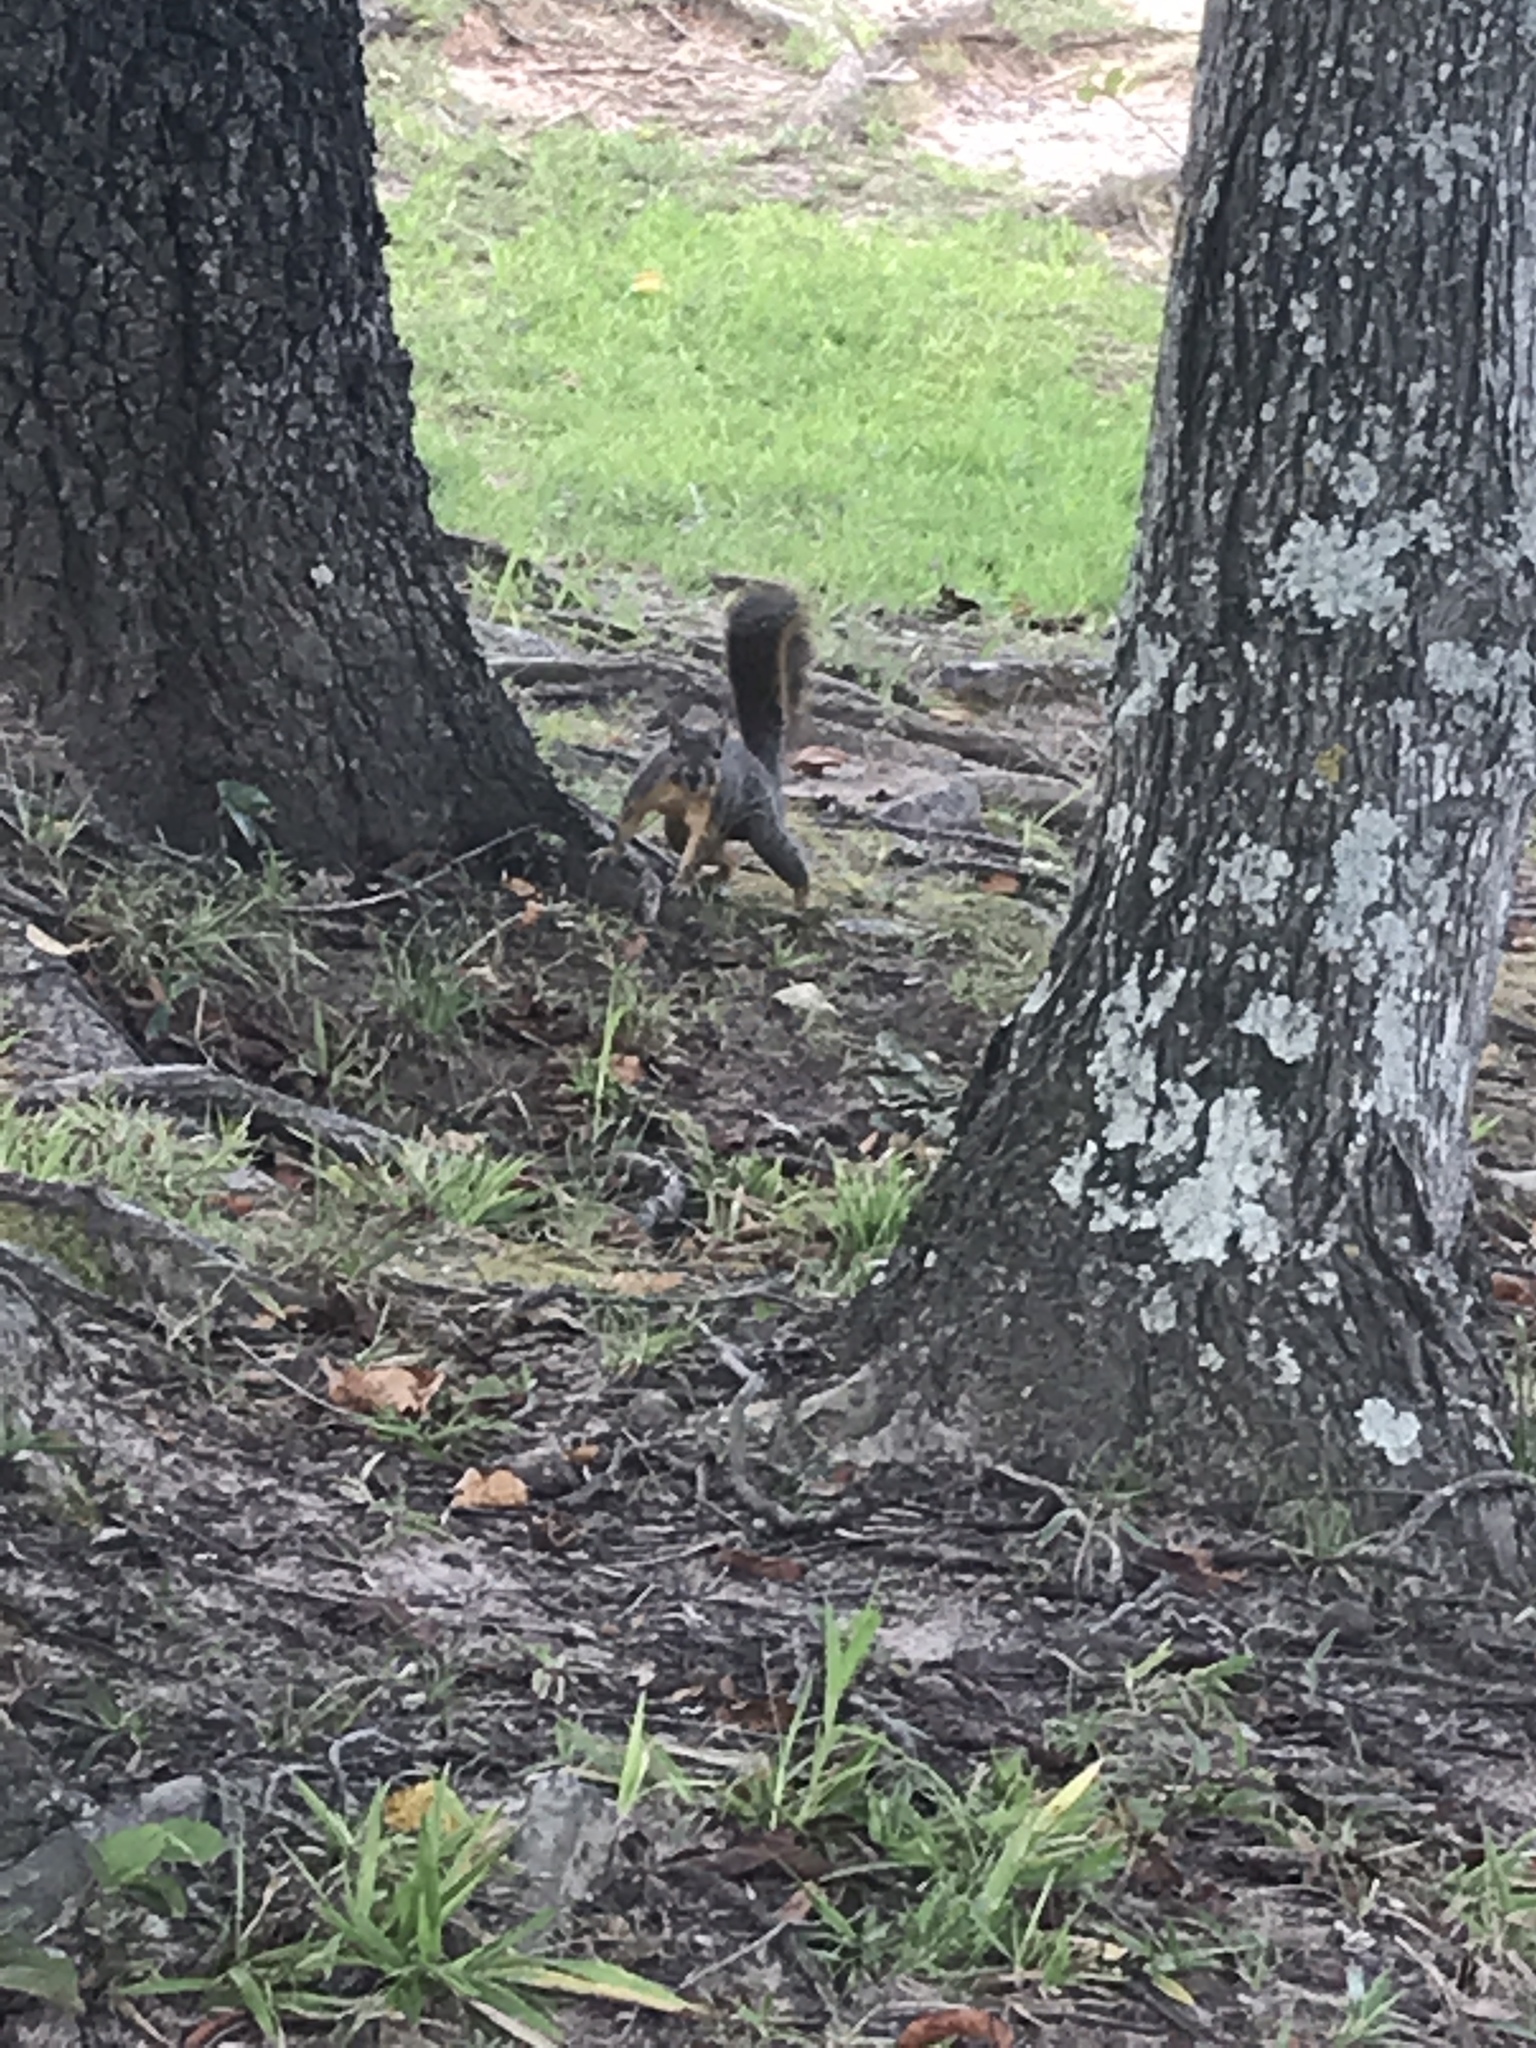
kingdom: Animalia
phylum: Chordata
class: Mammalia
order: Rodentia
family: Sciuridae
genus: Sciurus
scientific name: Sciurus niger
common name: Fox squirrel
